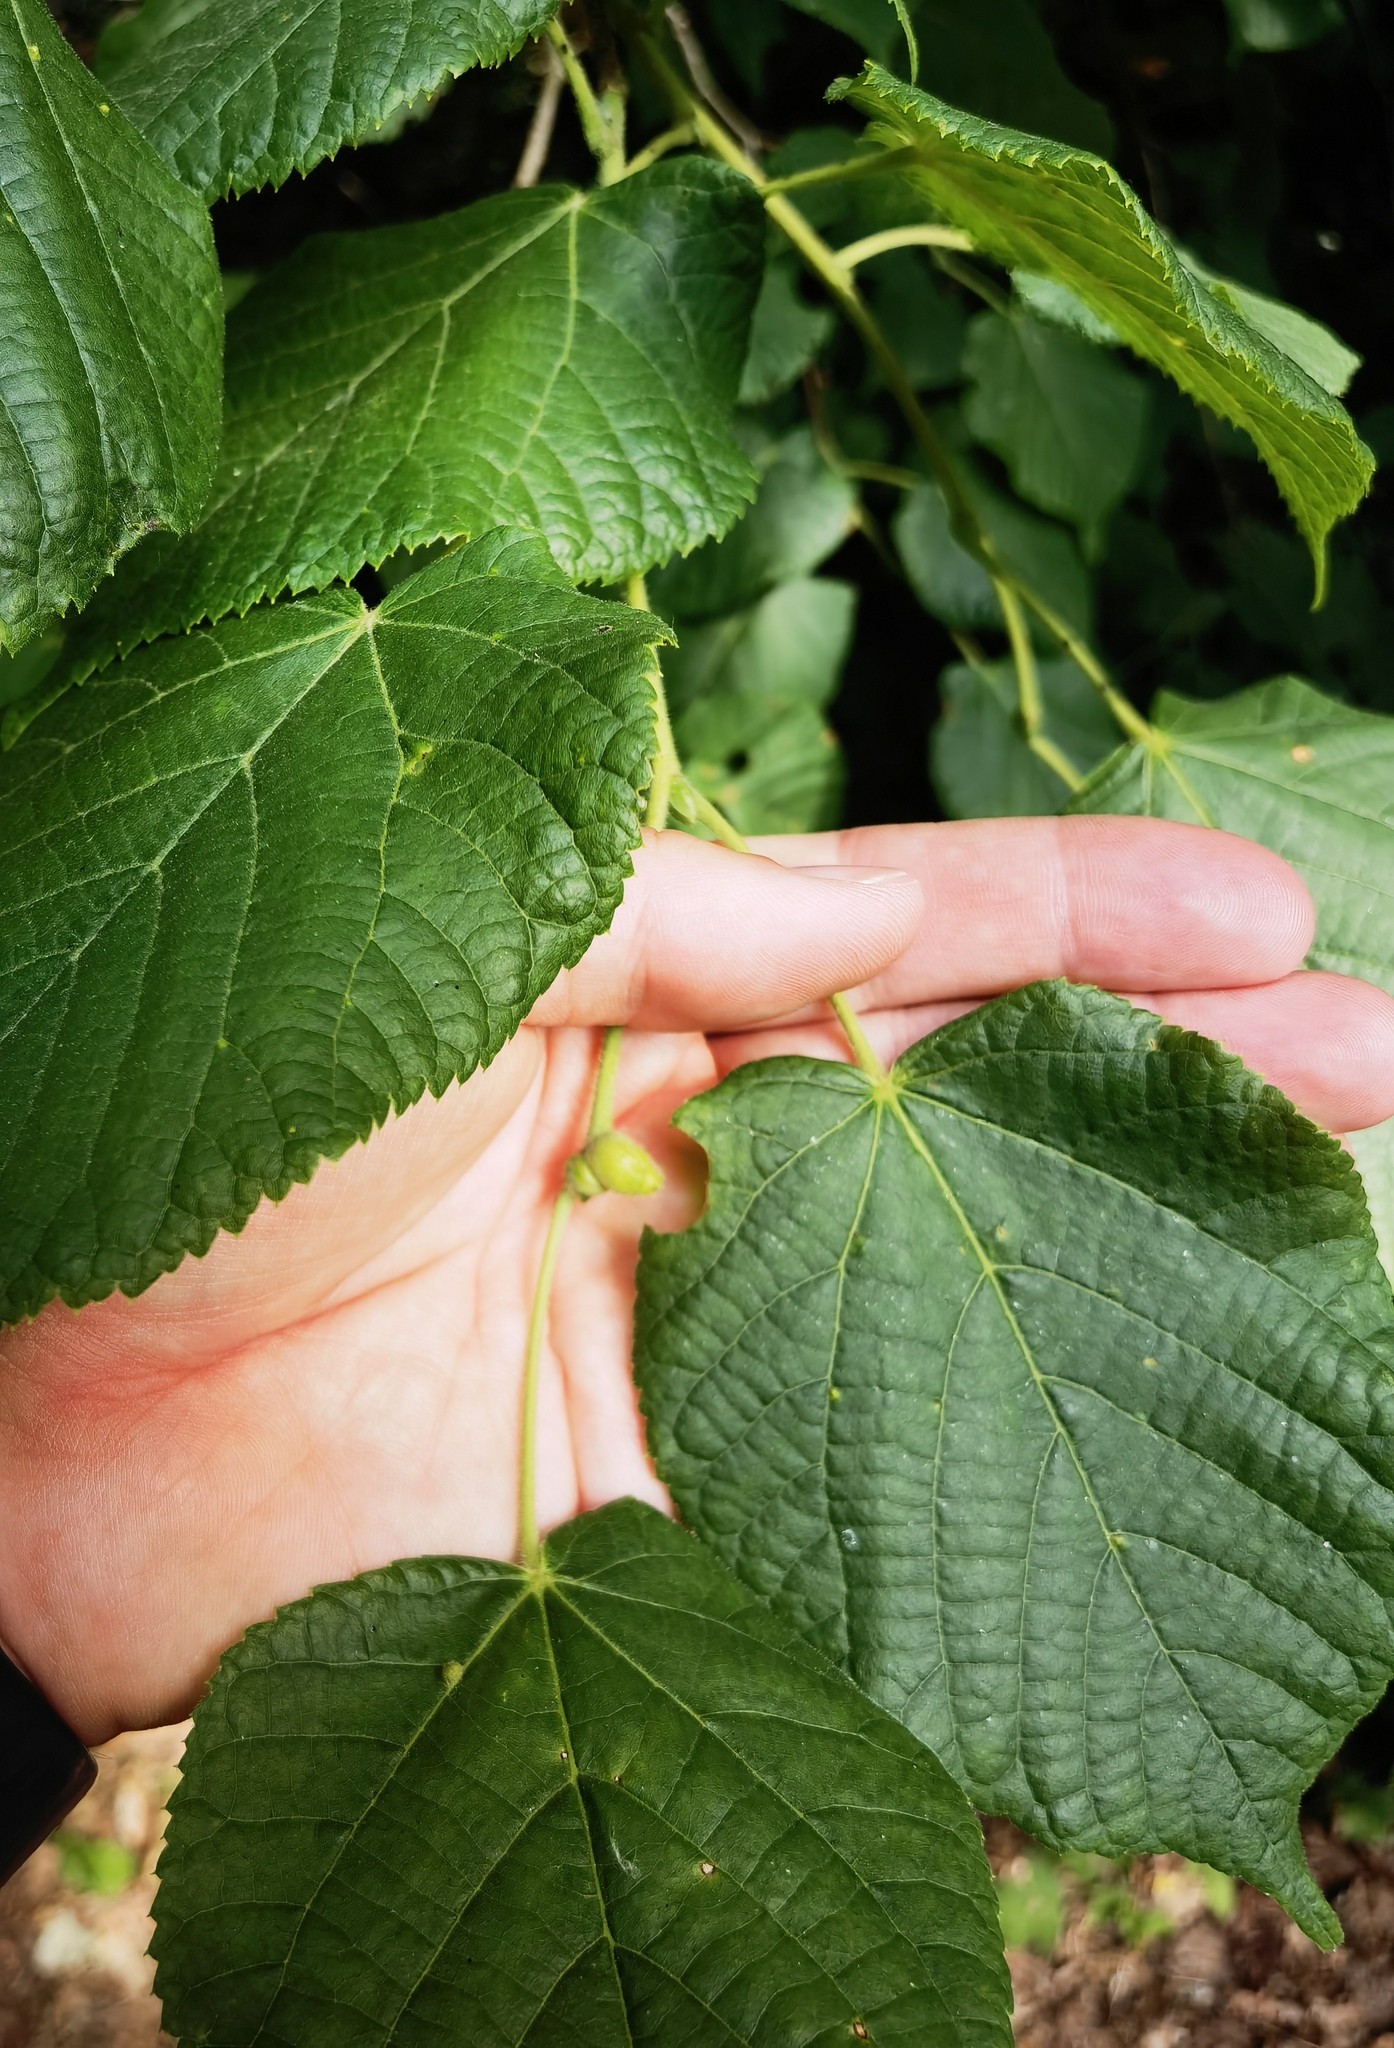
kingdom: Animalia
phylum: Arthropoda
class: Insecta
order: Diptera
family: Cecidomyiidae
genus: Contarinia
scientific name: Contarinia tiliarum
